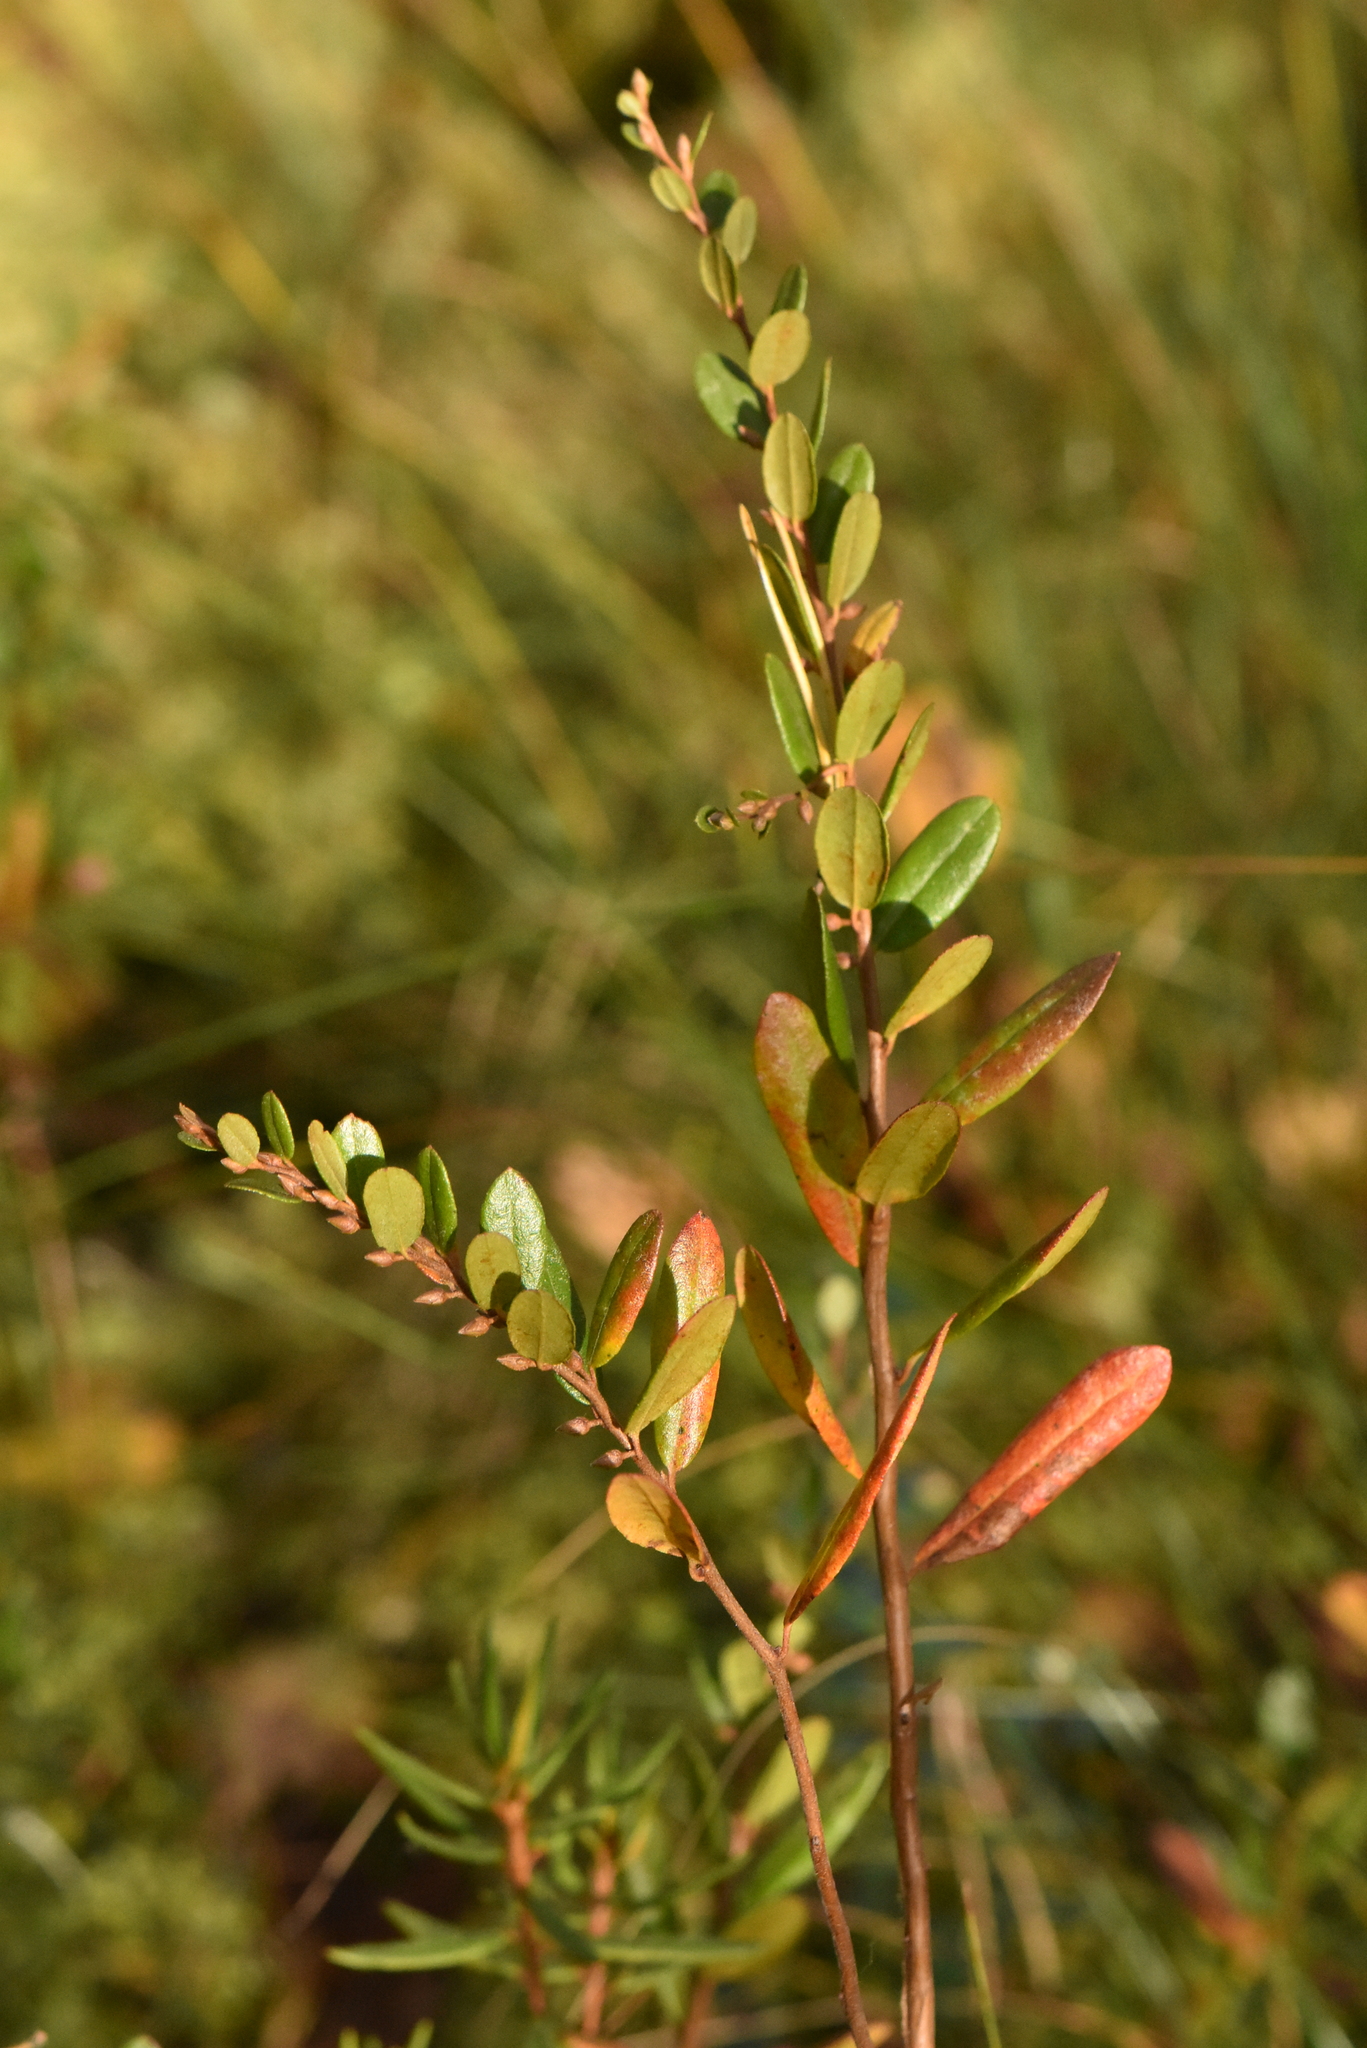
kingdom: Plantae
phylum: Tracheophyta
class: Magnoliopsida
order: Ericales
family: Ericaceae
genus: Chamaedaphne
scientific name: Chamaedaphne calyculata
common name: Leatherleaf
